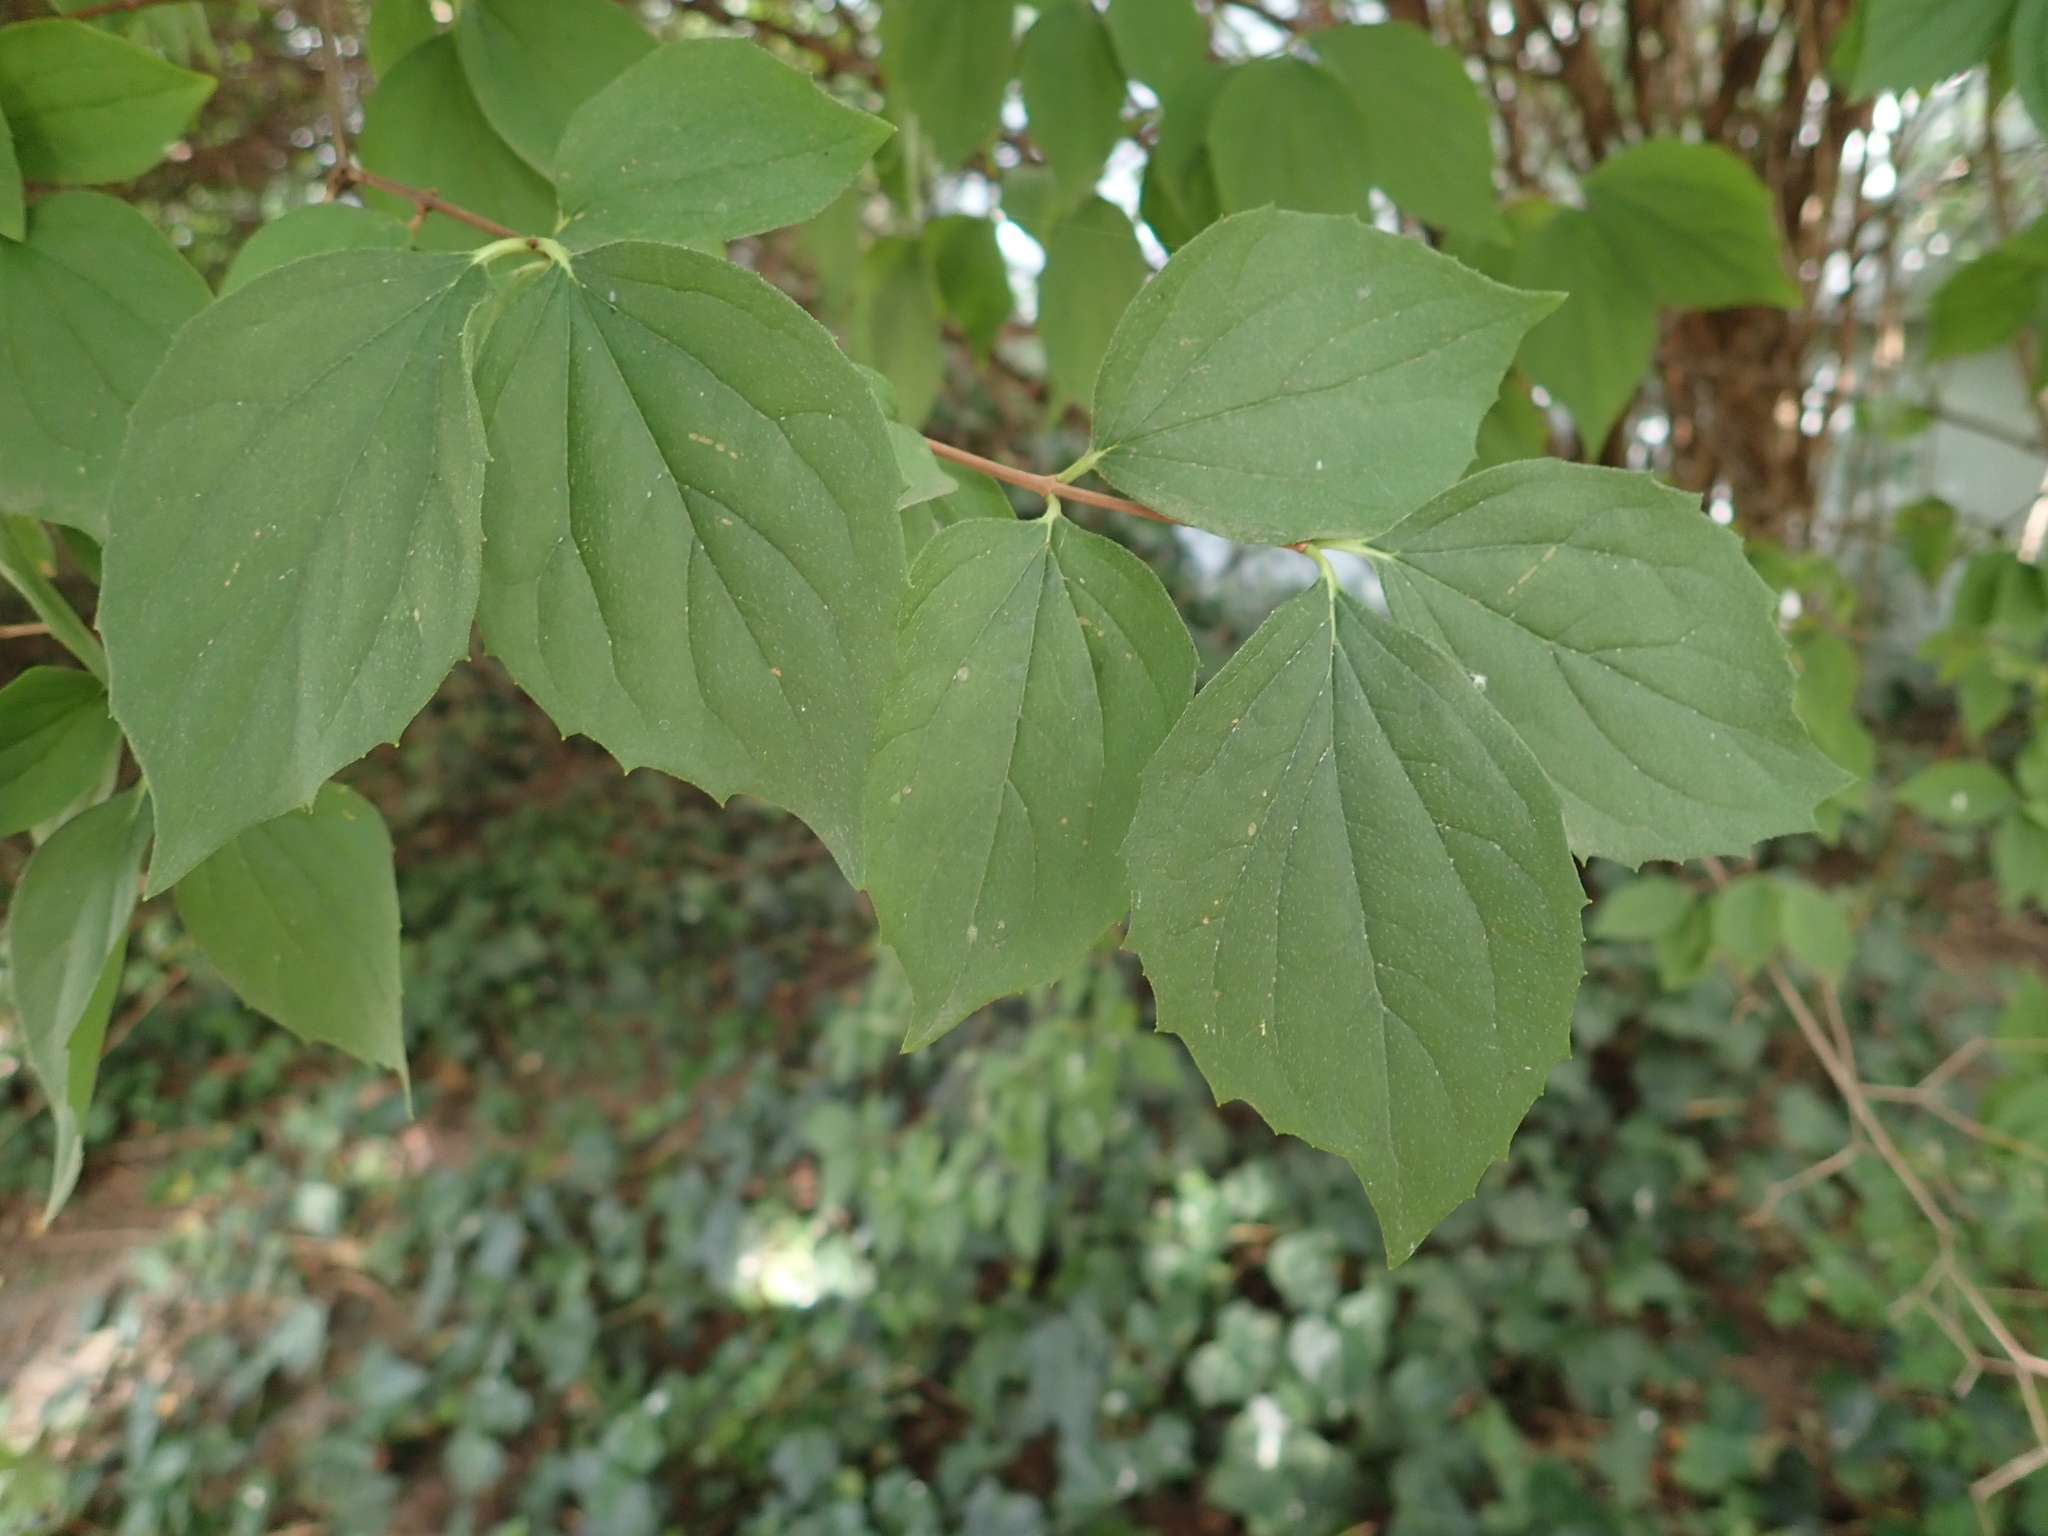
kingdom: Plantae
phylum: Tracheophyta
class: Magnoliopsida
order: Cornales
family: Hydrangeaceae
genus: Philadelphus
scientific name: Philadelphus coronarius
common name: Mock orange
